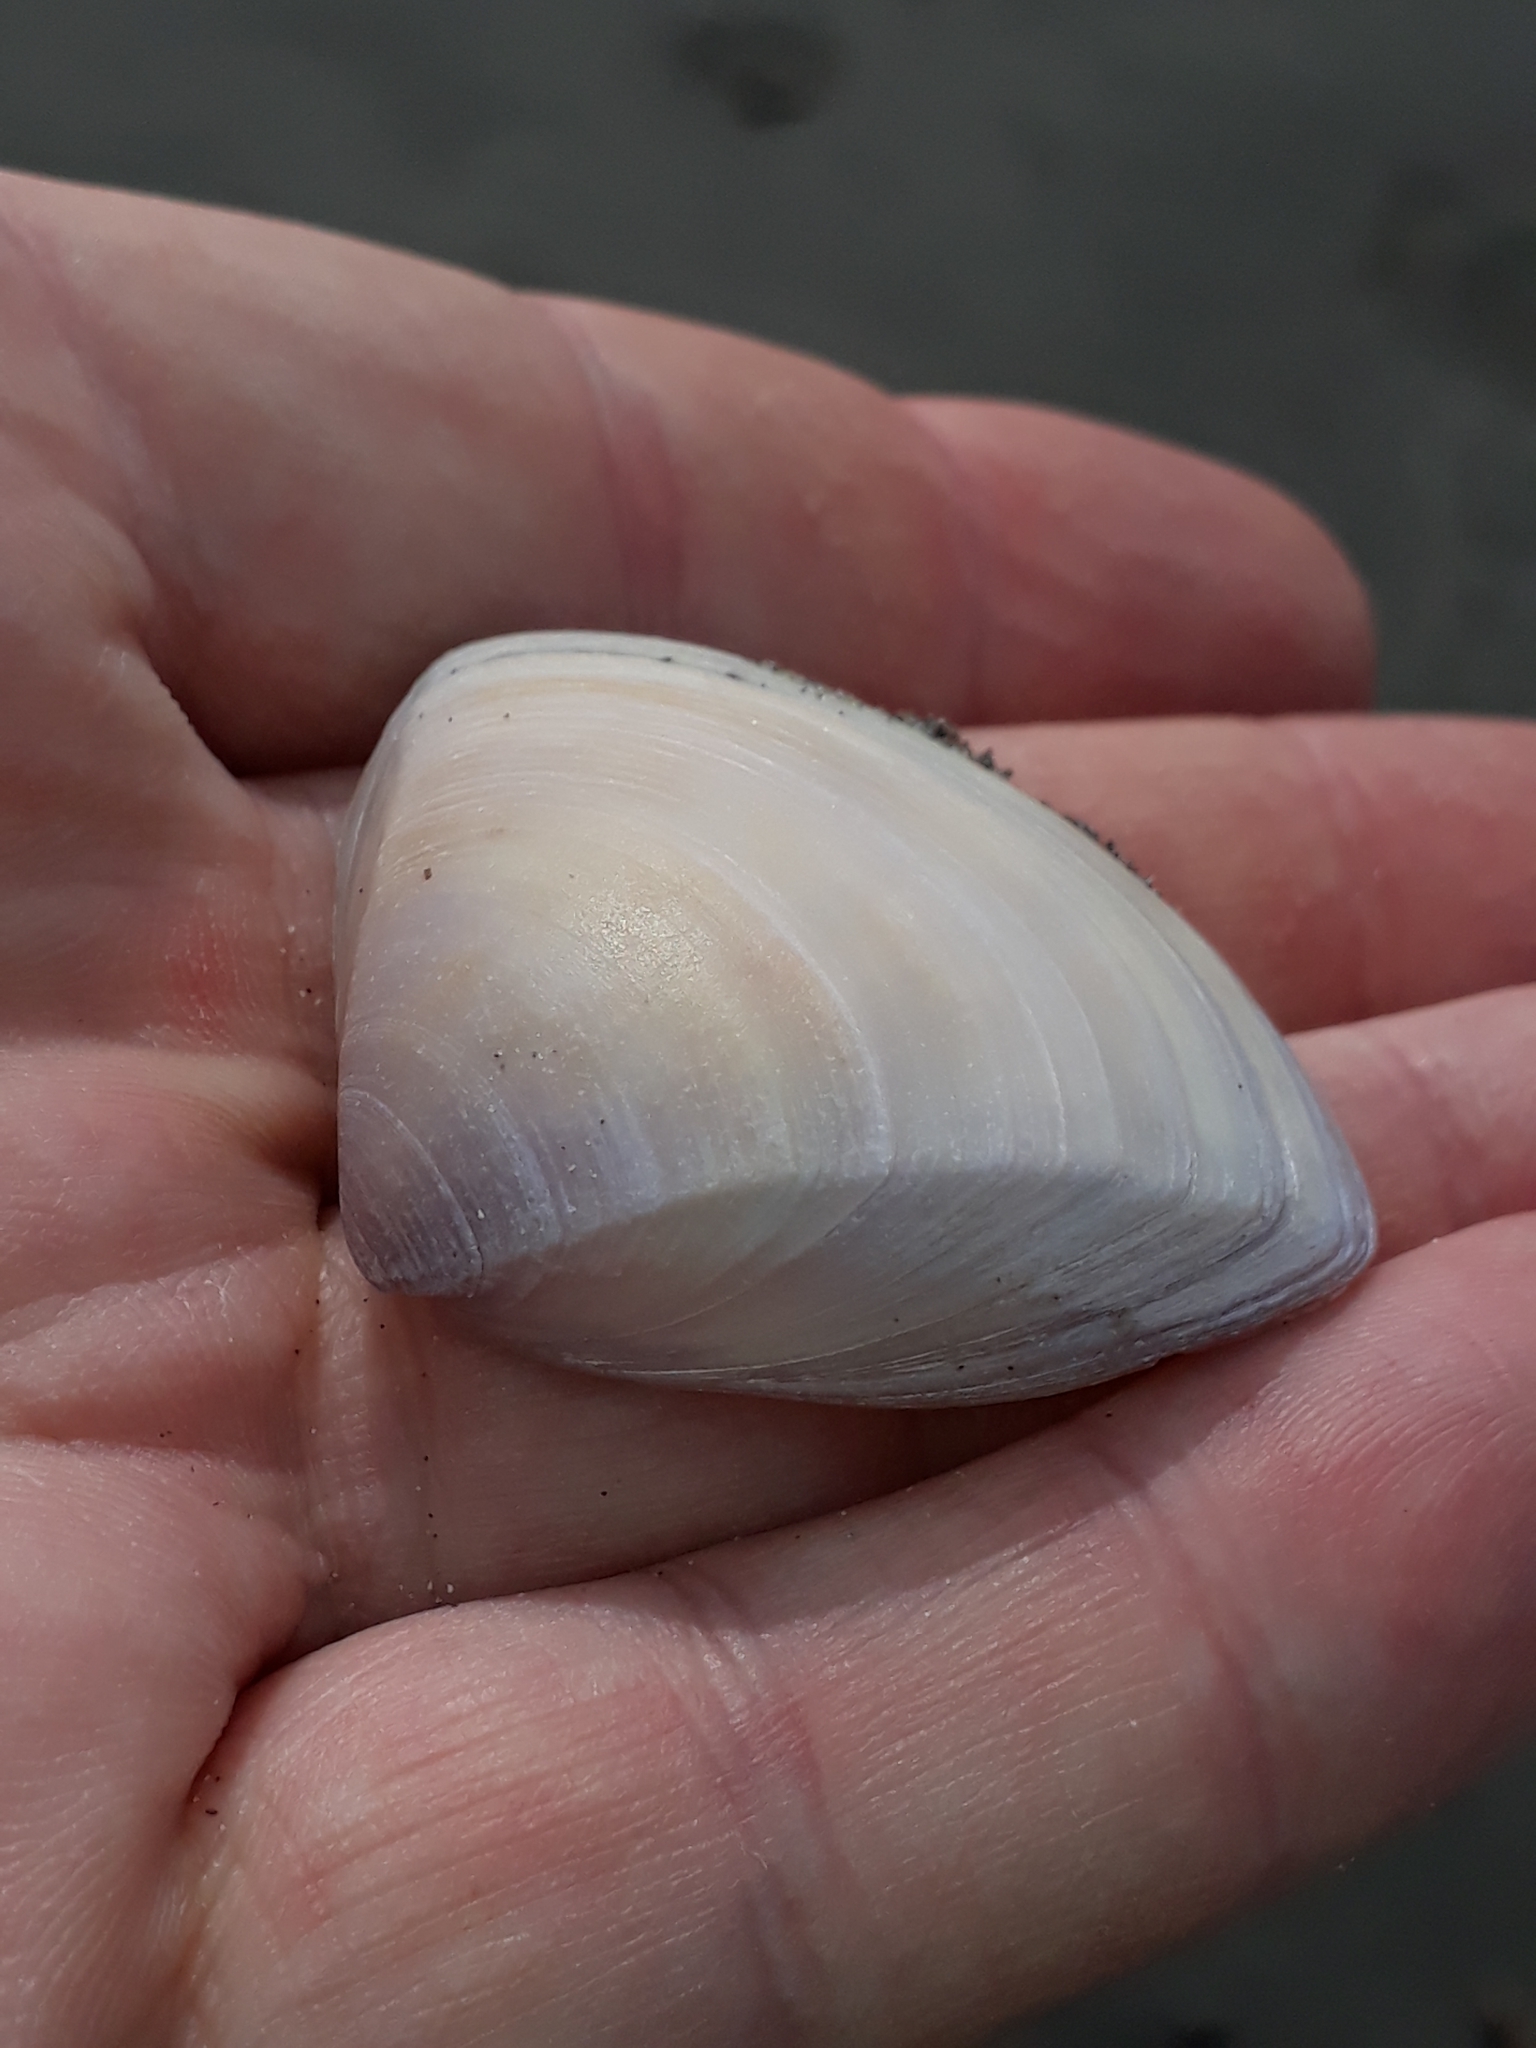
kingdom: Animalia
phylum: Mollusca
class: Bivalvia
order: Venerida
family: Mactridae
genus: Crassula
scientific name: Crassula aequilatera
